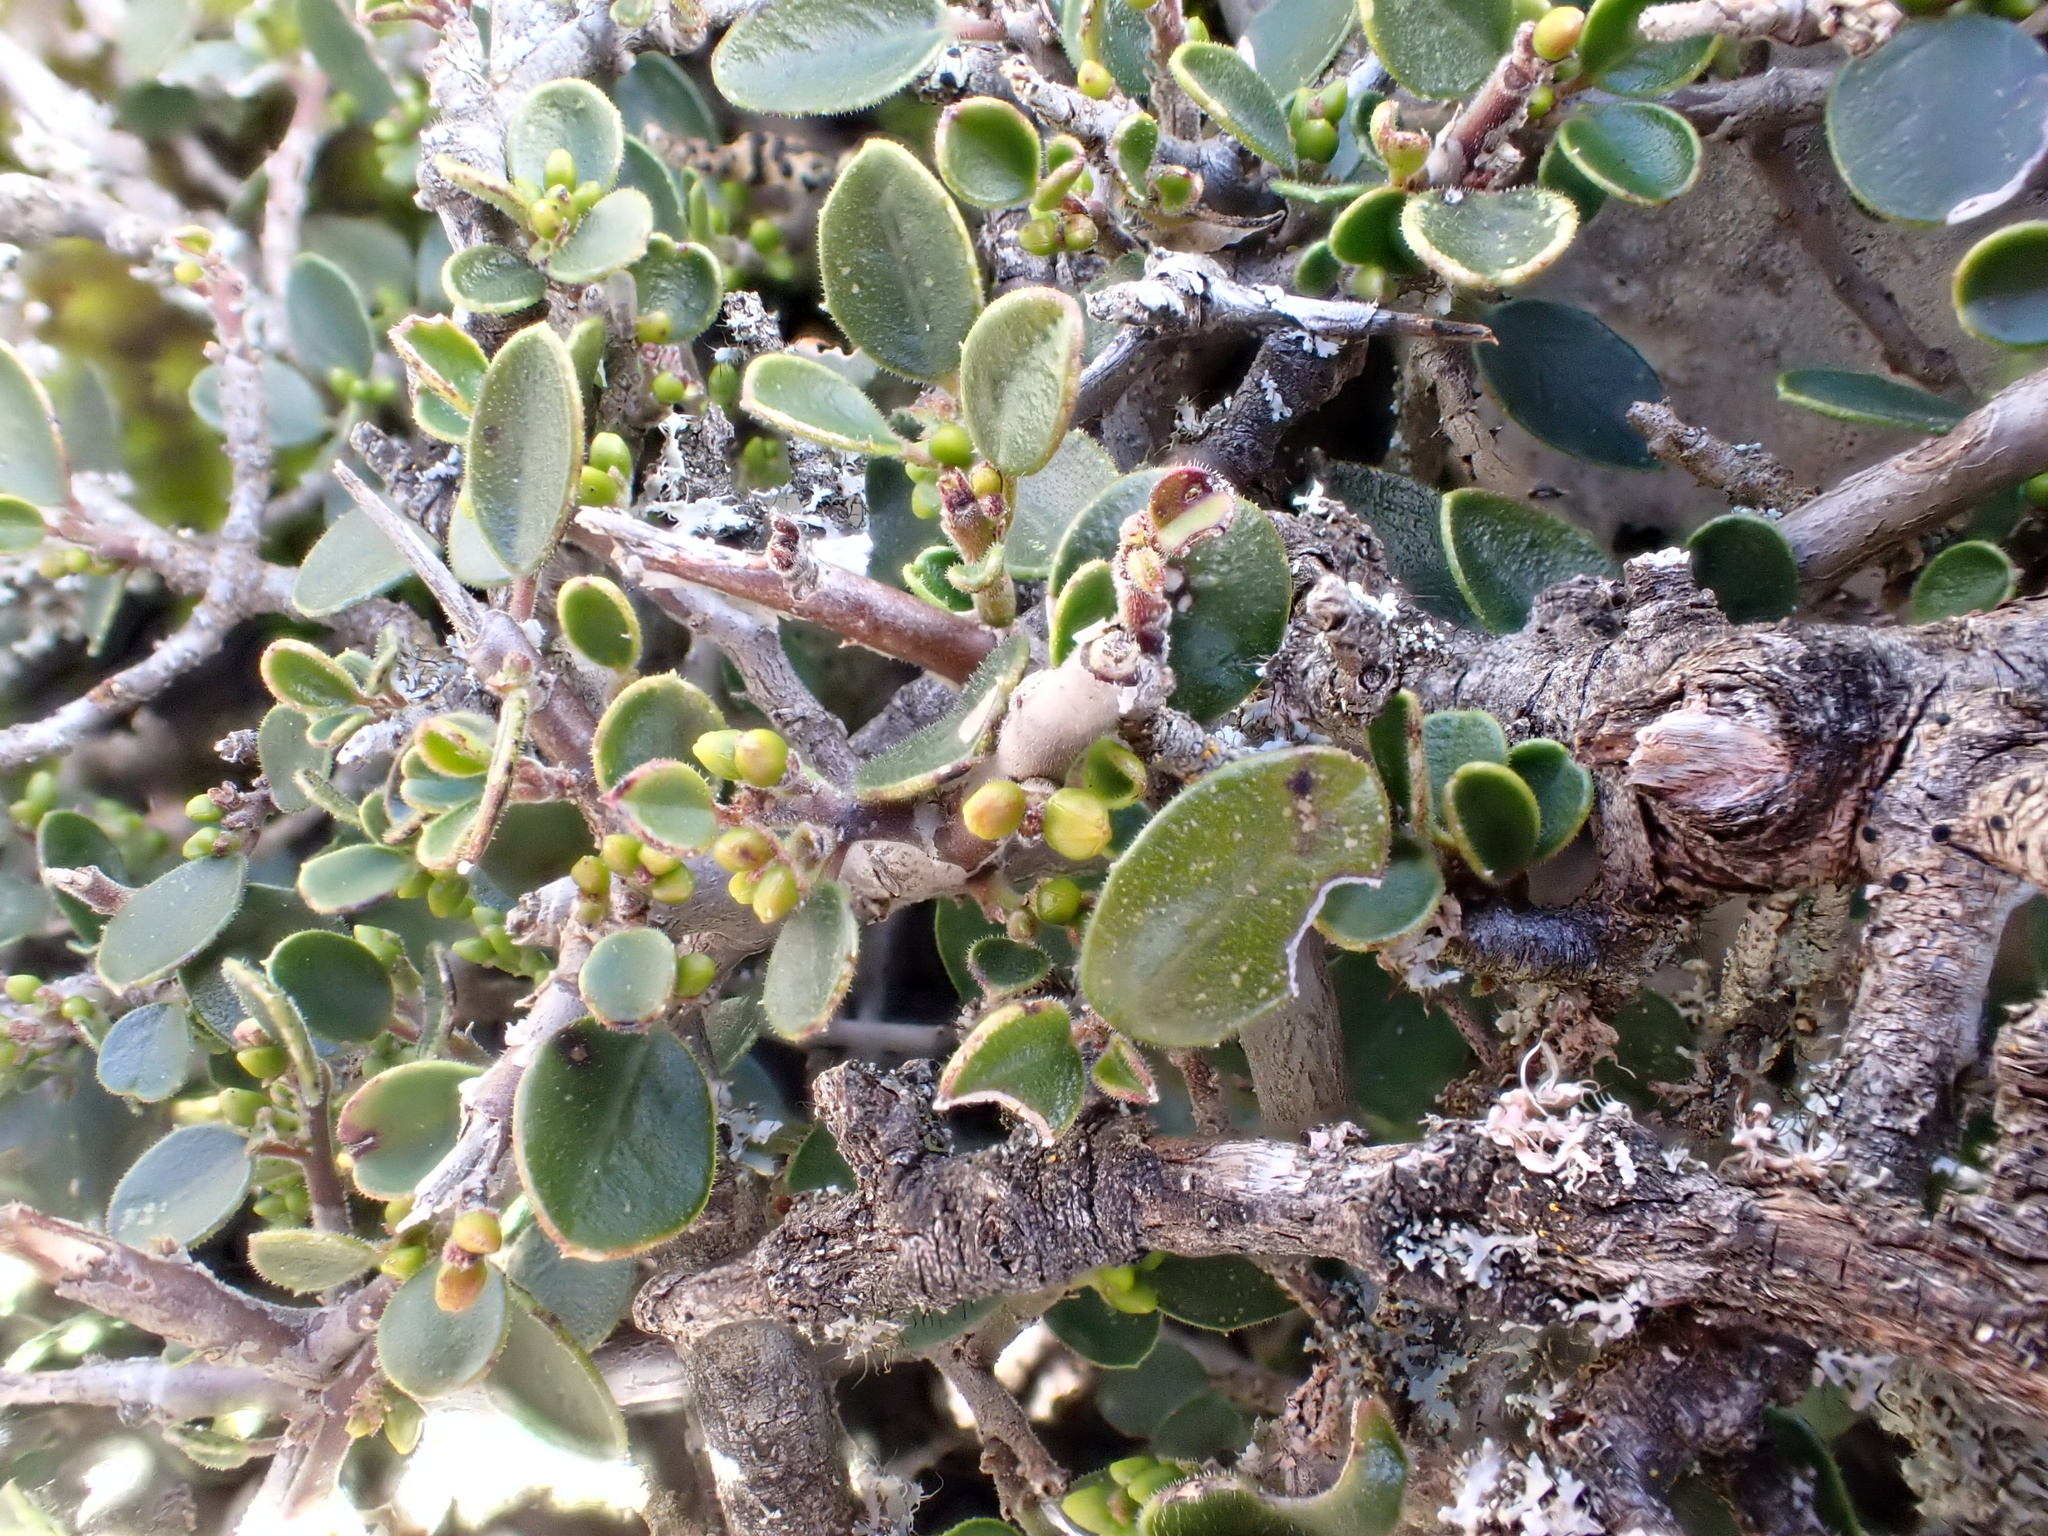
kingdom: Plantae
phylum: Tracheophyta
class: Magnoliopsida
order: Rosales
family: Rhamnaceae
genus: Rhamnus
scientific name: Rhamnus myrtifolia
